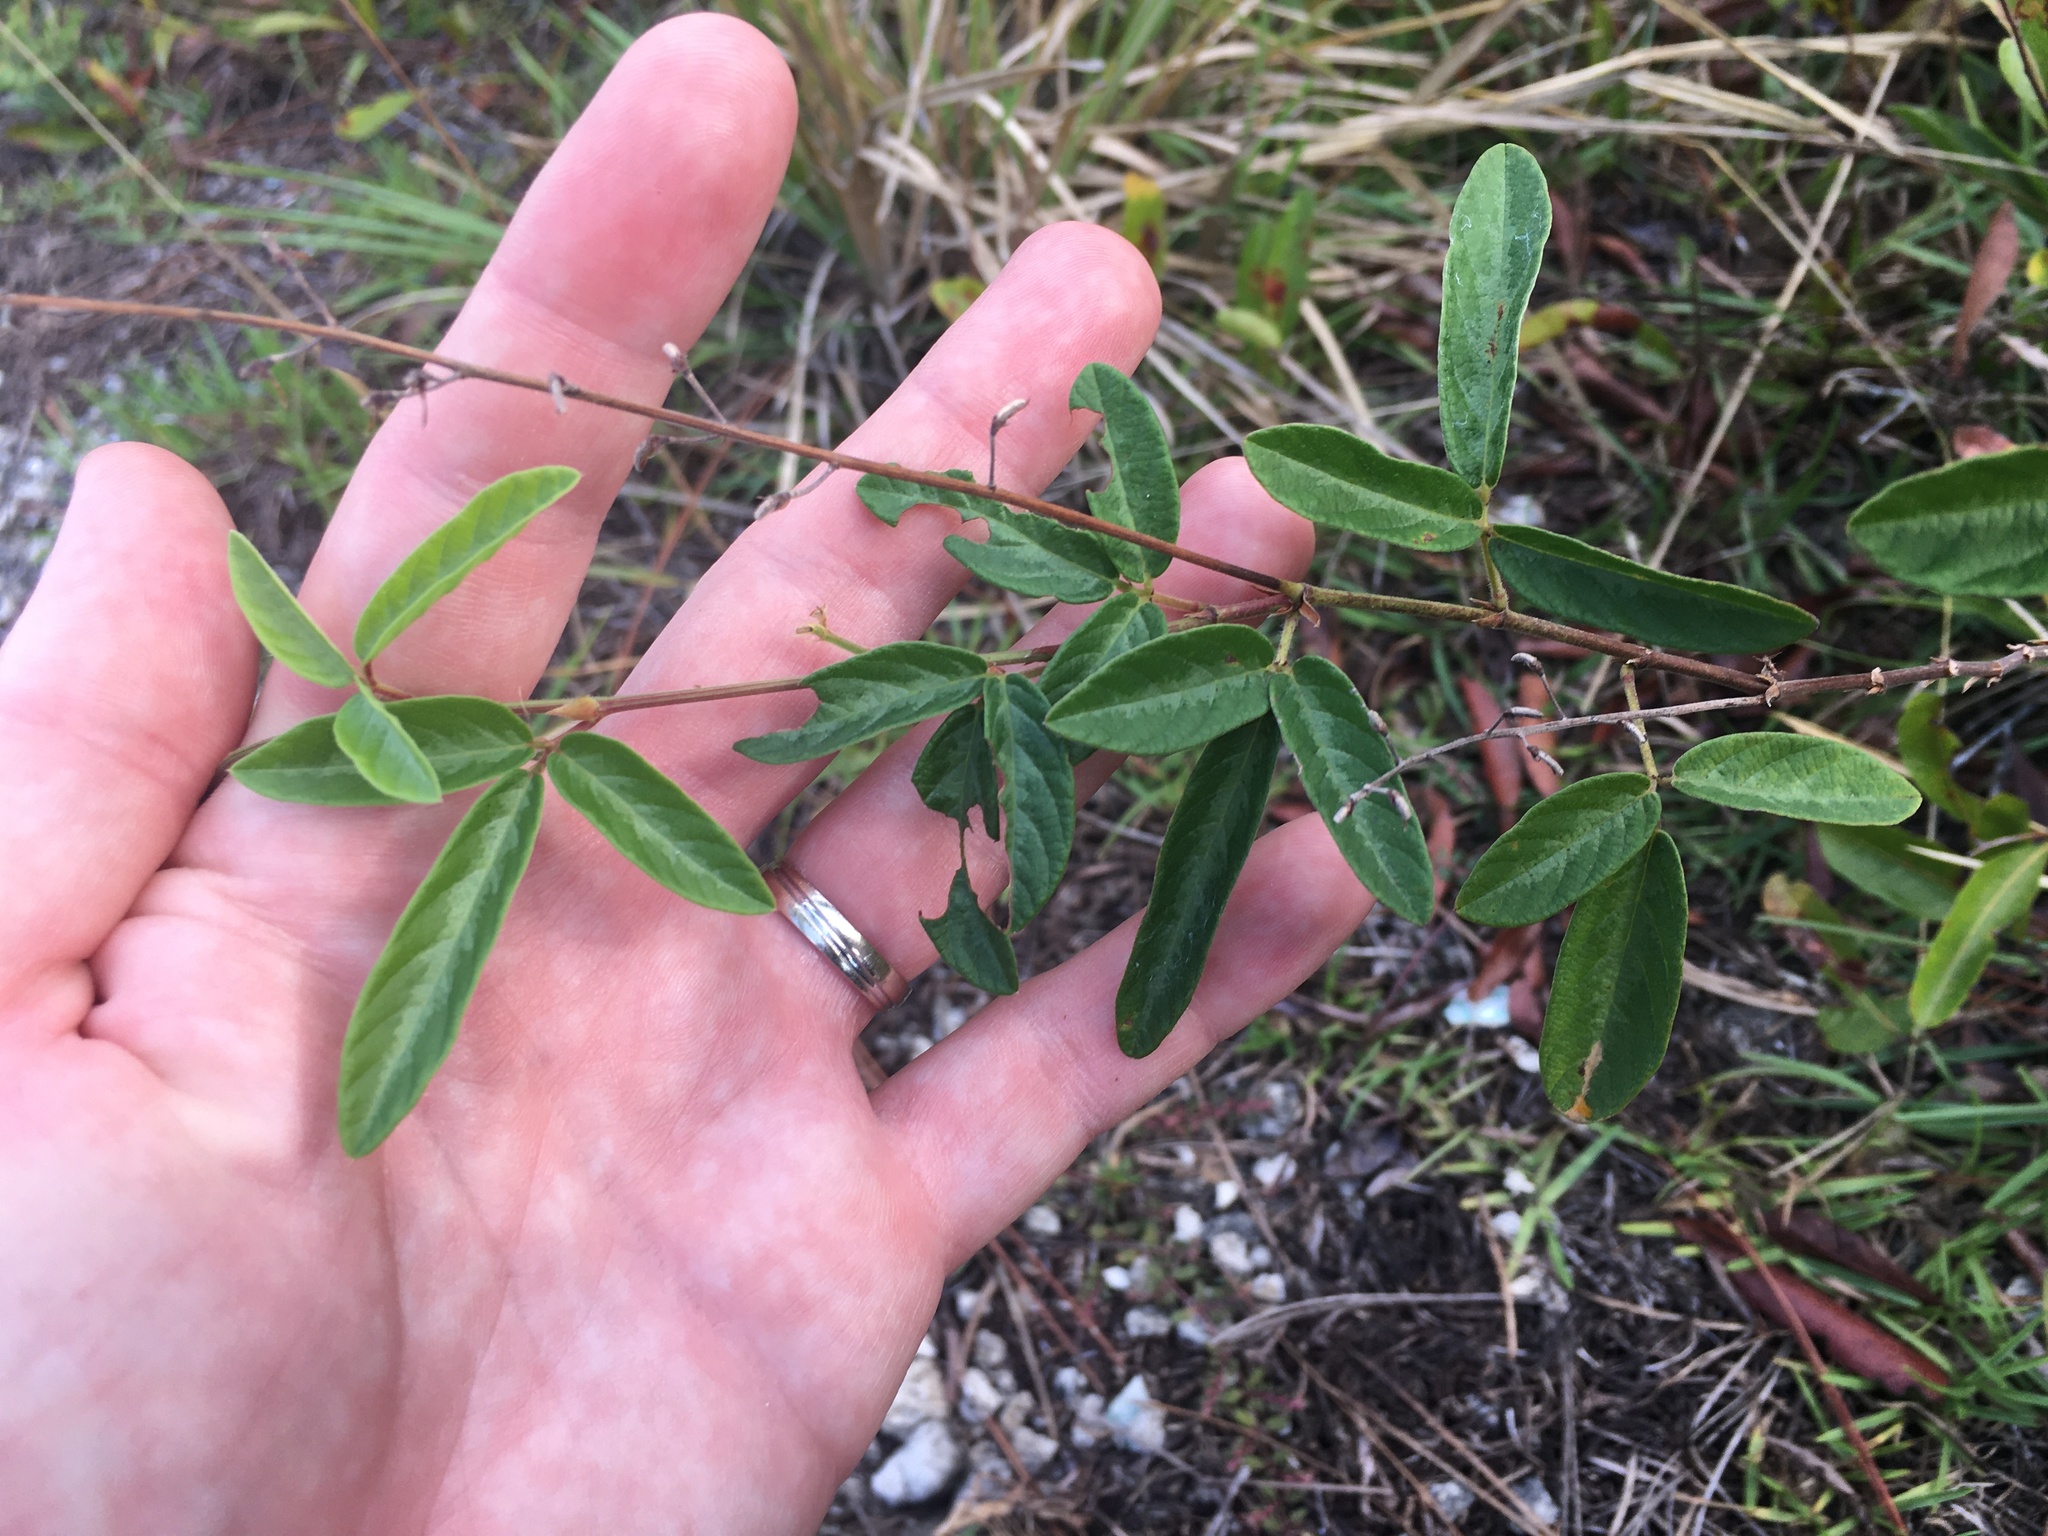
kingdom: Plantae
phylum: Tracheophyta
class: Magnoliopsida
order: Fabales
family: Fabaceae
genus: Desmodium
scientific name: Desmodium incanum
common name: Tickclover
